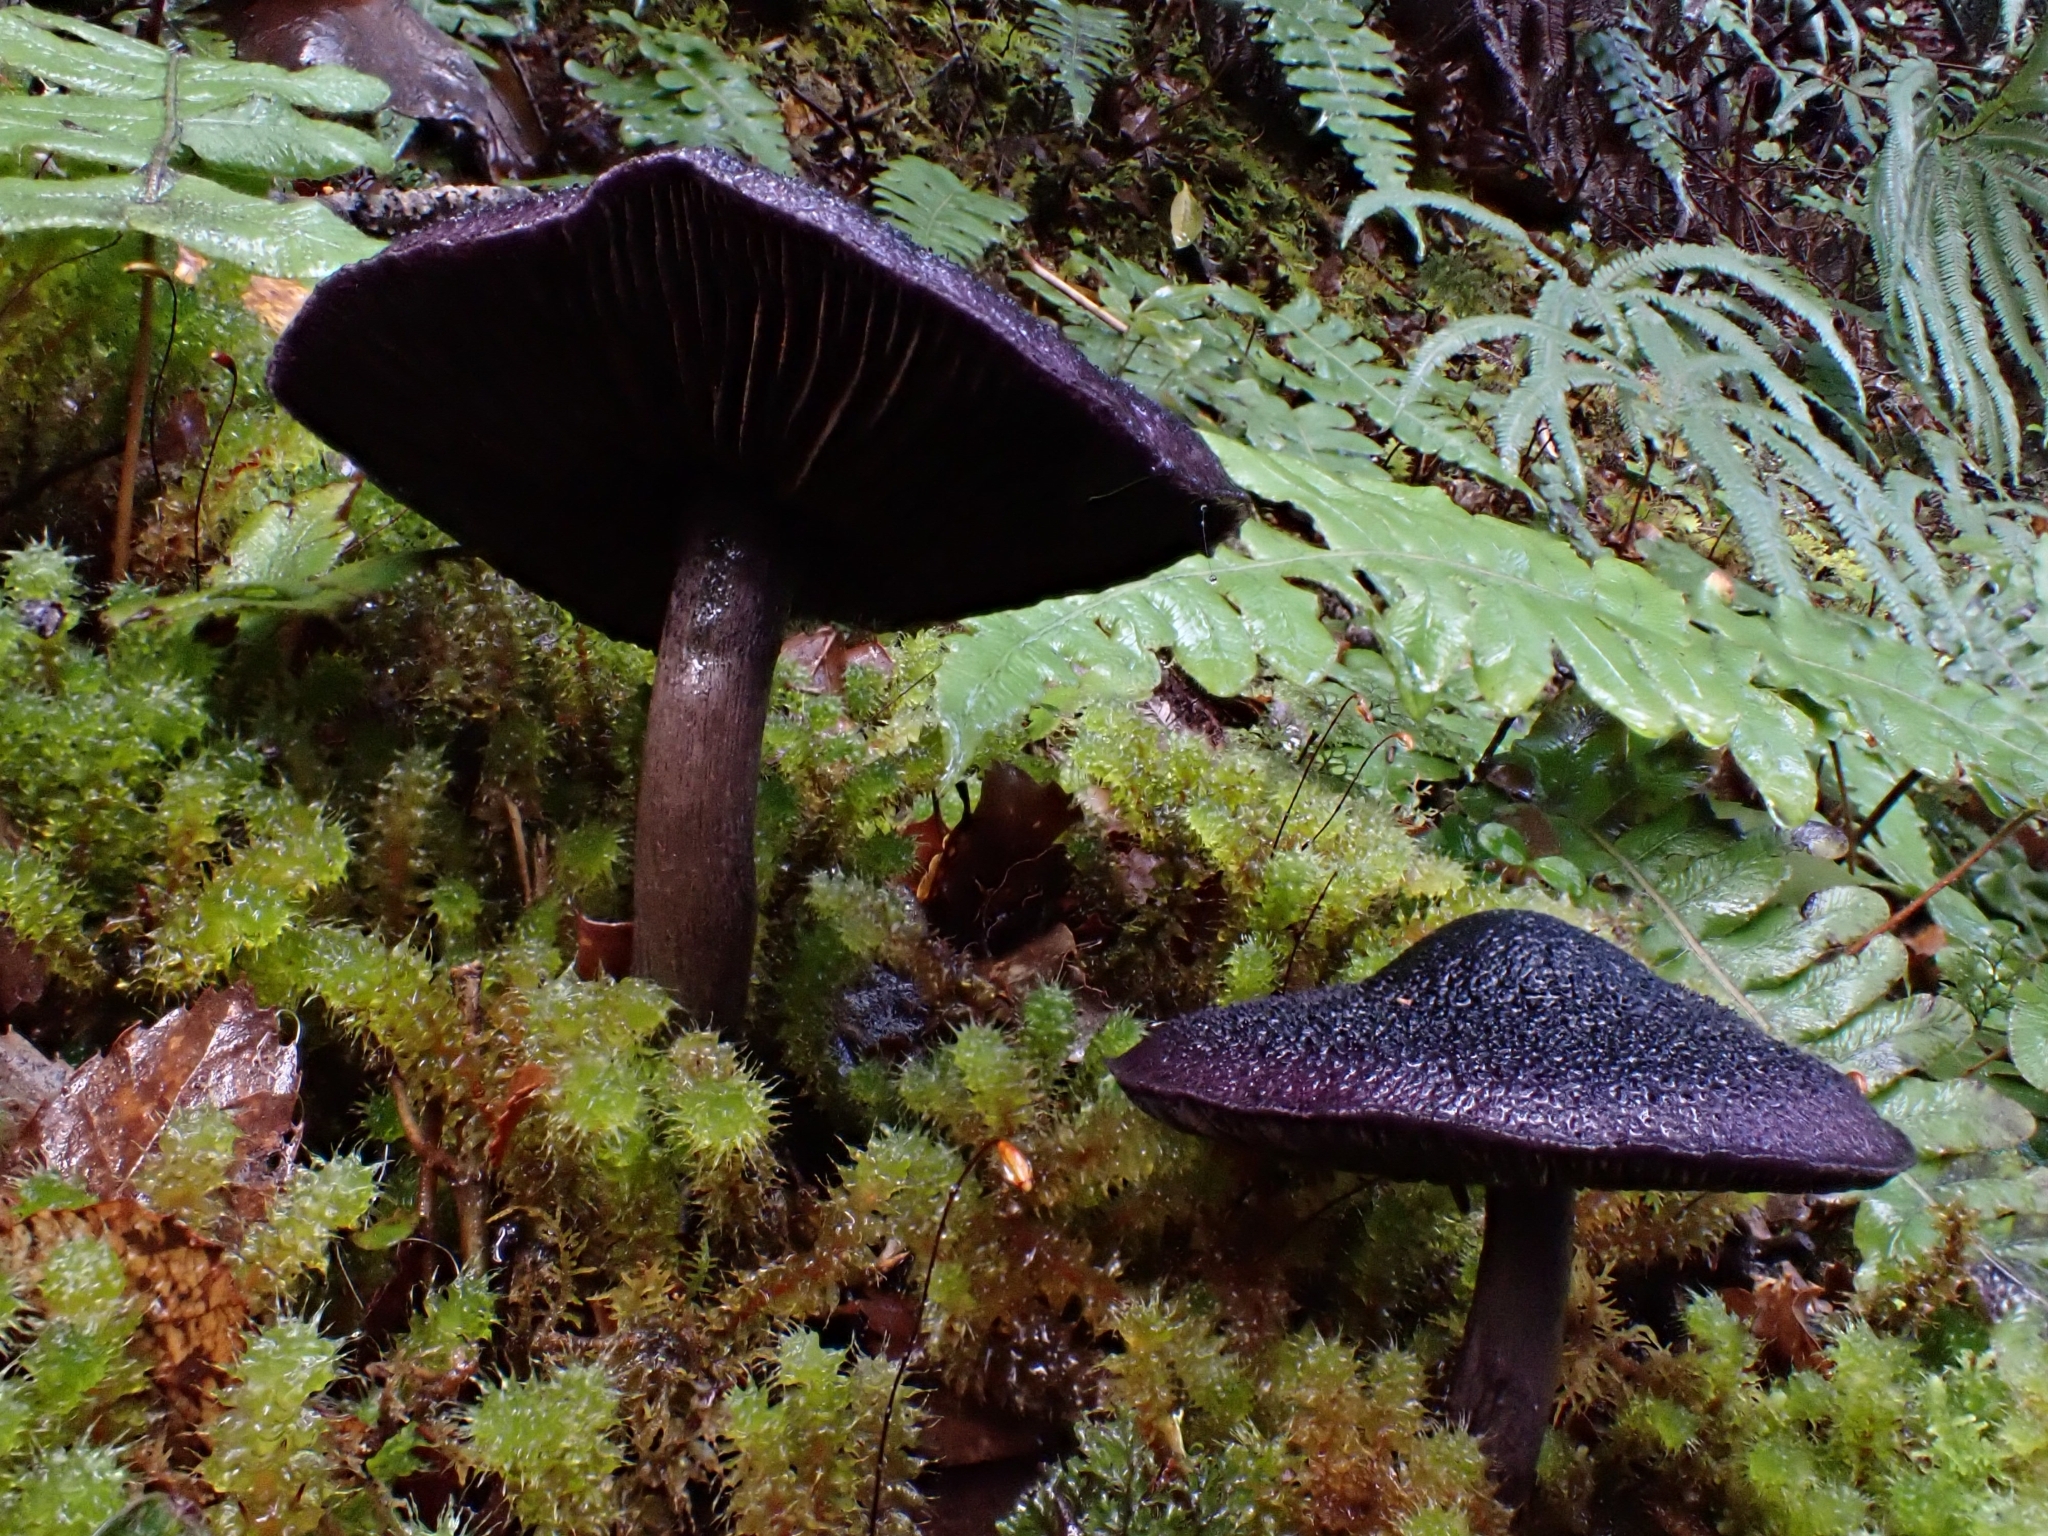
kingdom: Fungi
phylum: Basidiomycota
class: Agaricomycetes
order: Agaricales
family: Cortinariaceae
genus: Cortinarius
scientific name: Cortinarius carneipallidus
